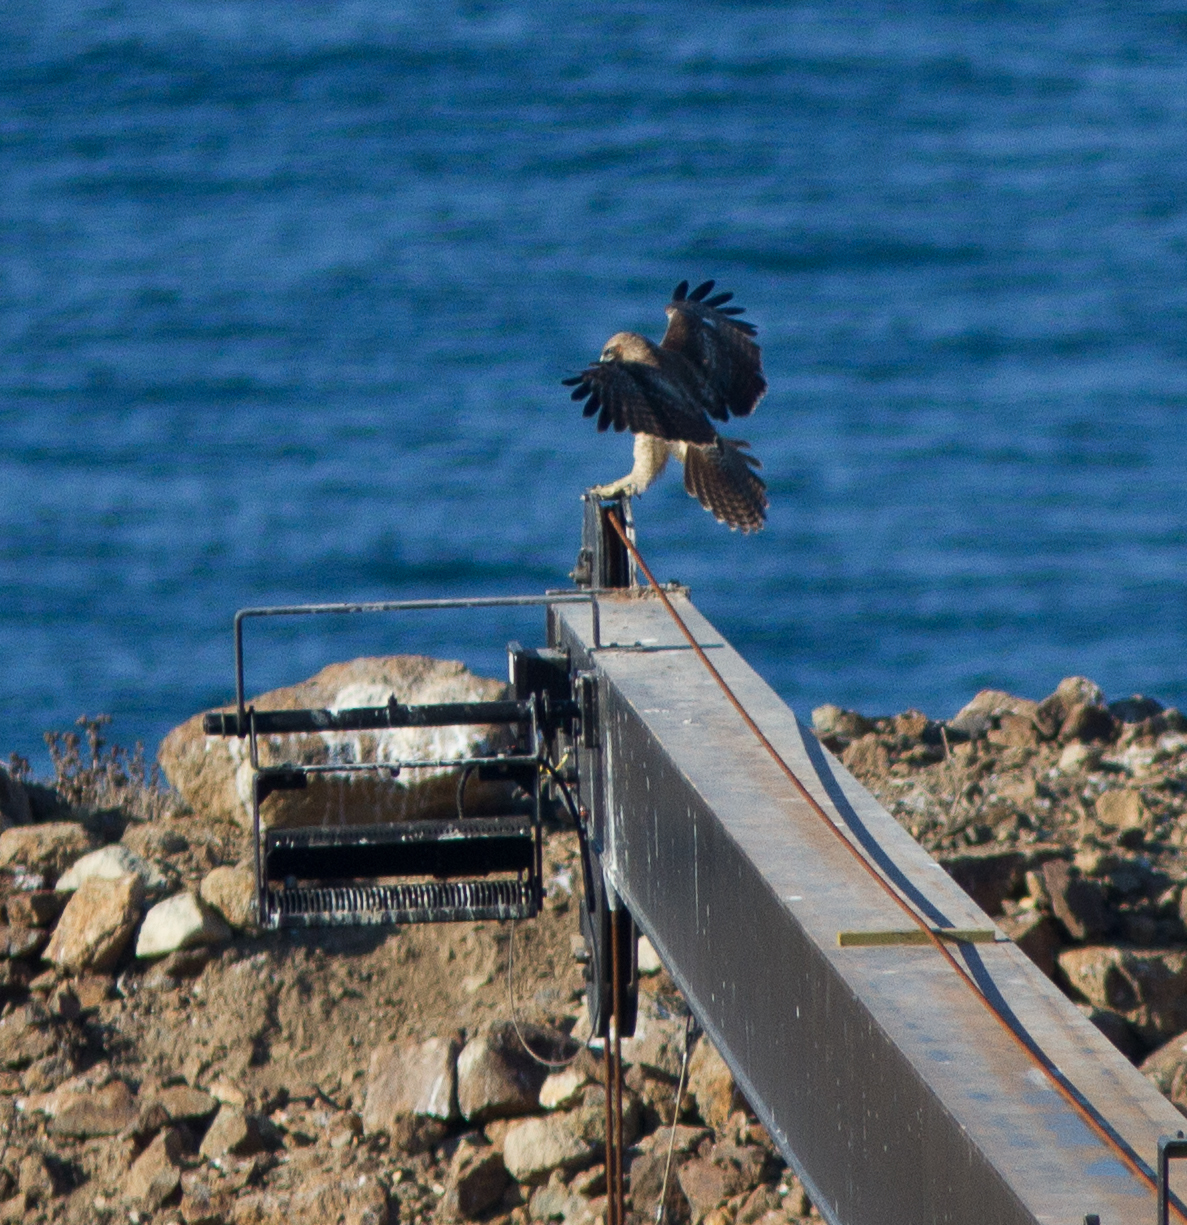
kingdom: Animalia
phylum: Chordata
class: Aves
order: Accipitriformes
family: Accipitridae
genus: Buteo
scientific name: Buteo jamaicensis
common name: Red-tailed hawk
